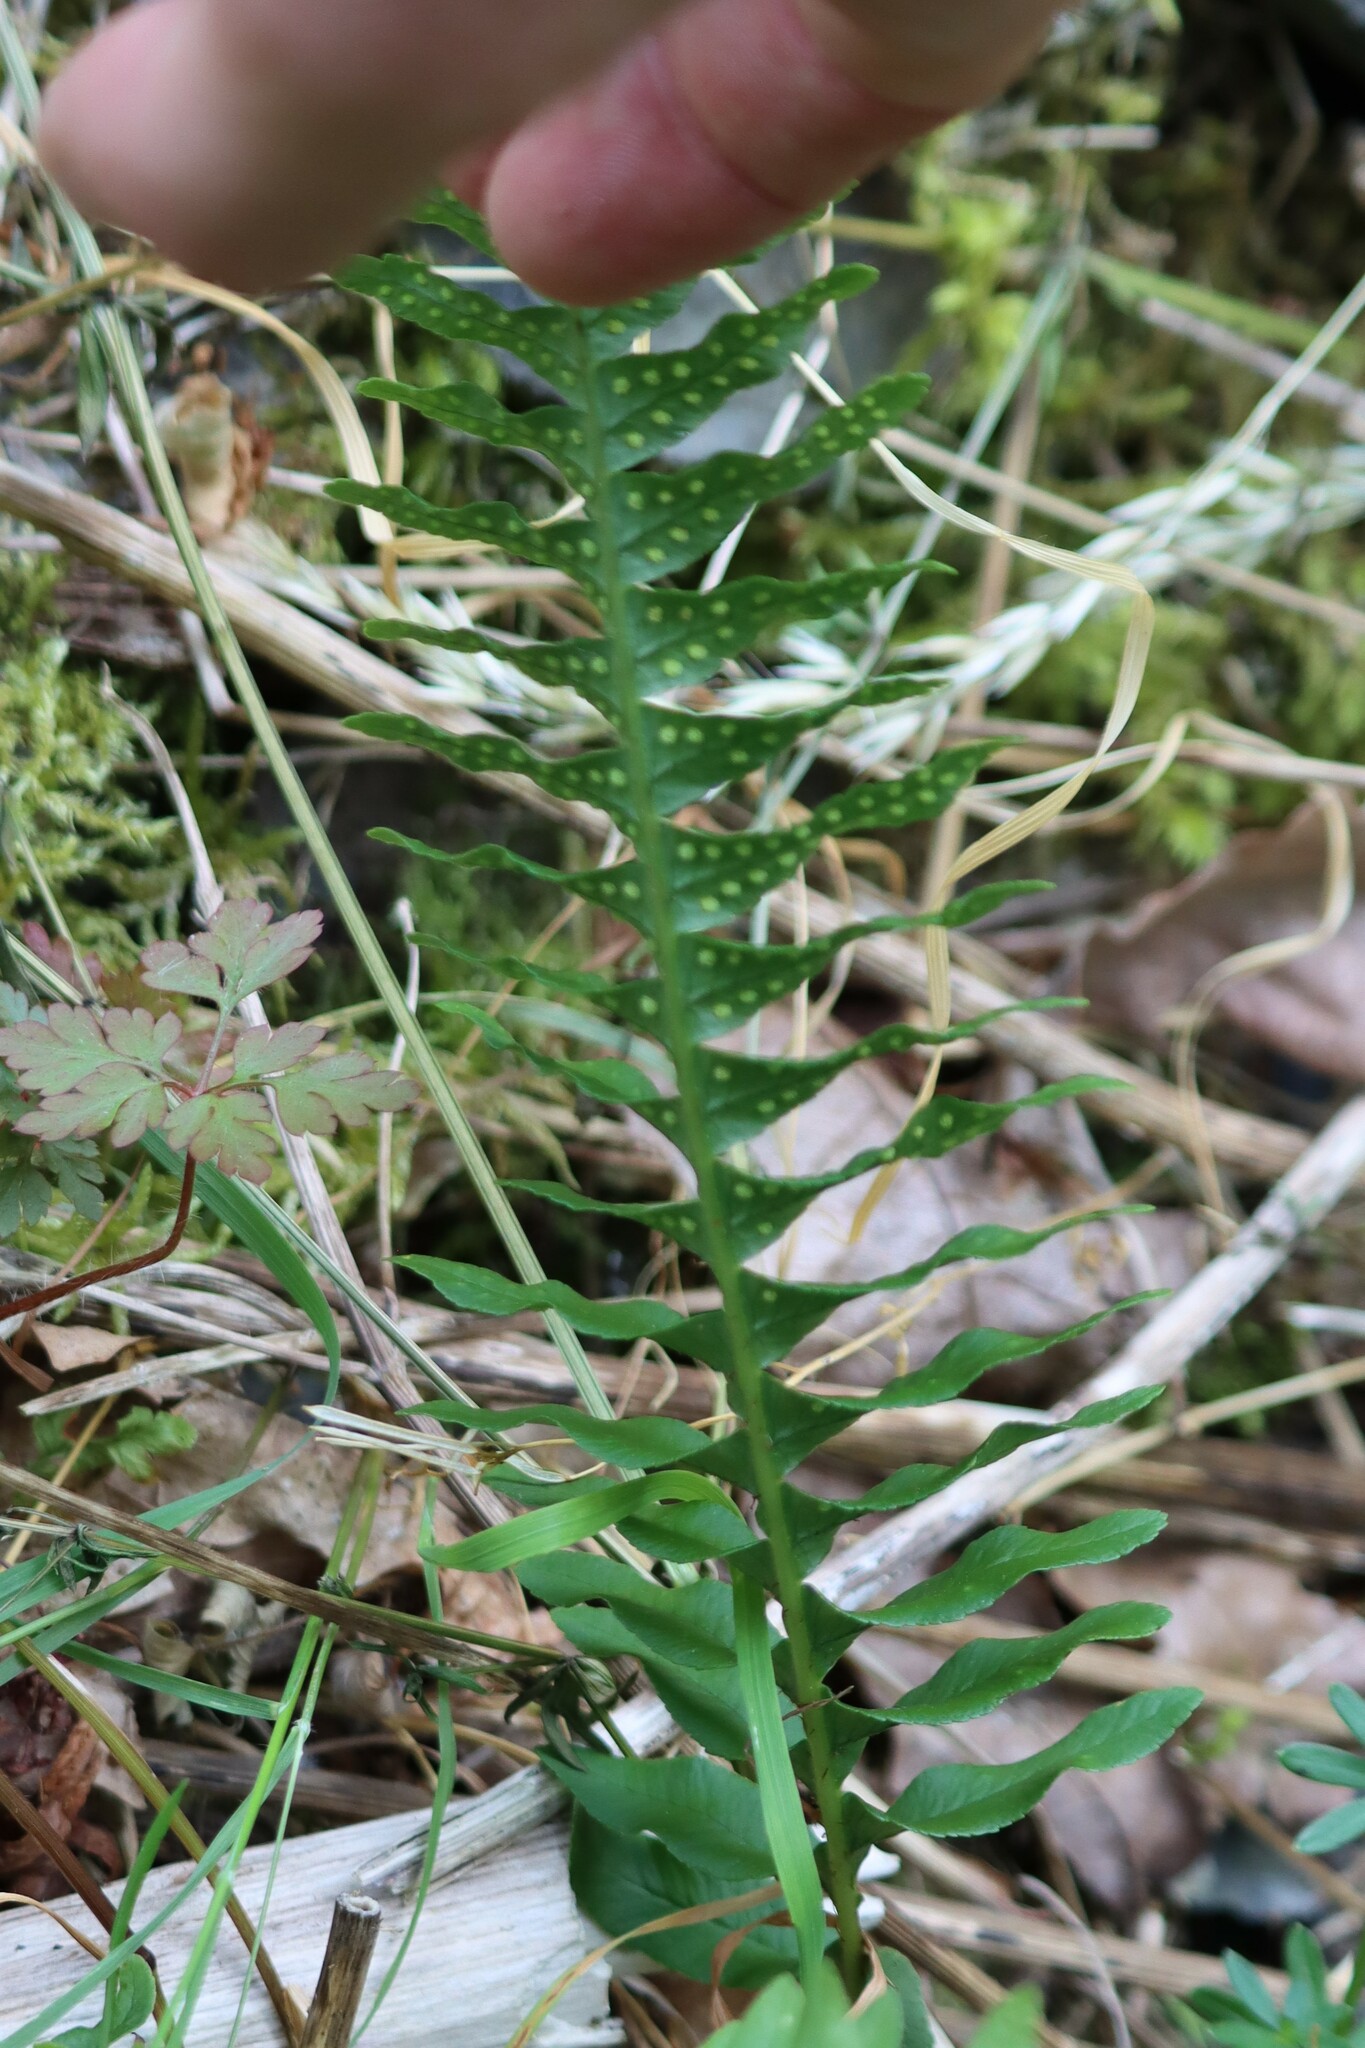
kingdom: Plantae
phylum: Tracheophyta
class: Polypodiopsida
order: Polypodiales
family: Polypodiaceae
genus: Polypodium
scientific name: Polypodium vulgare
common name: Common polypody
